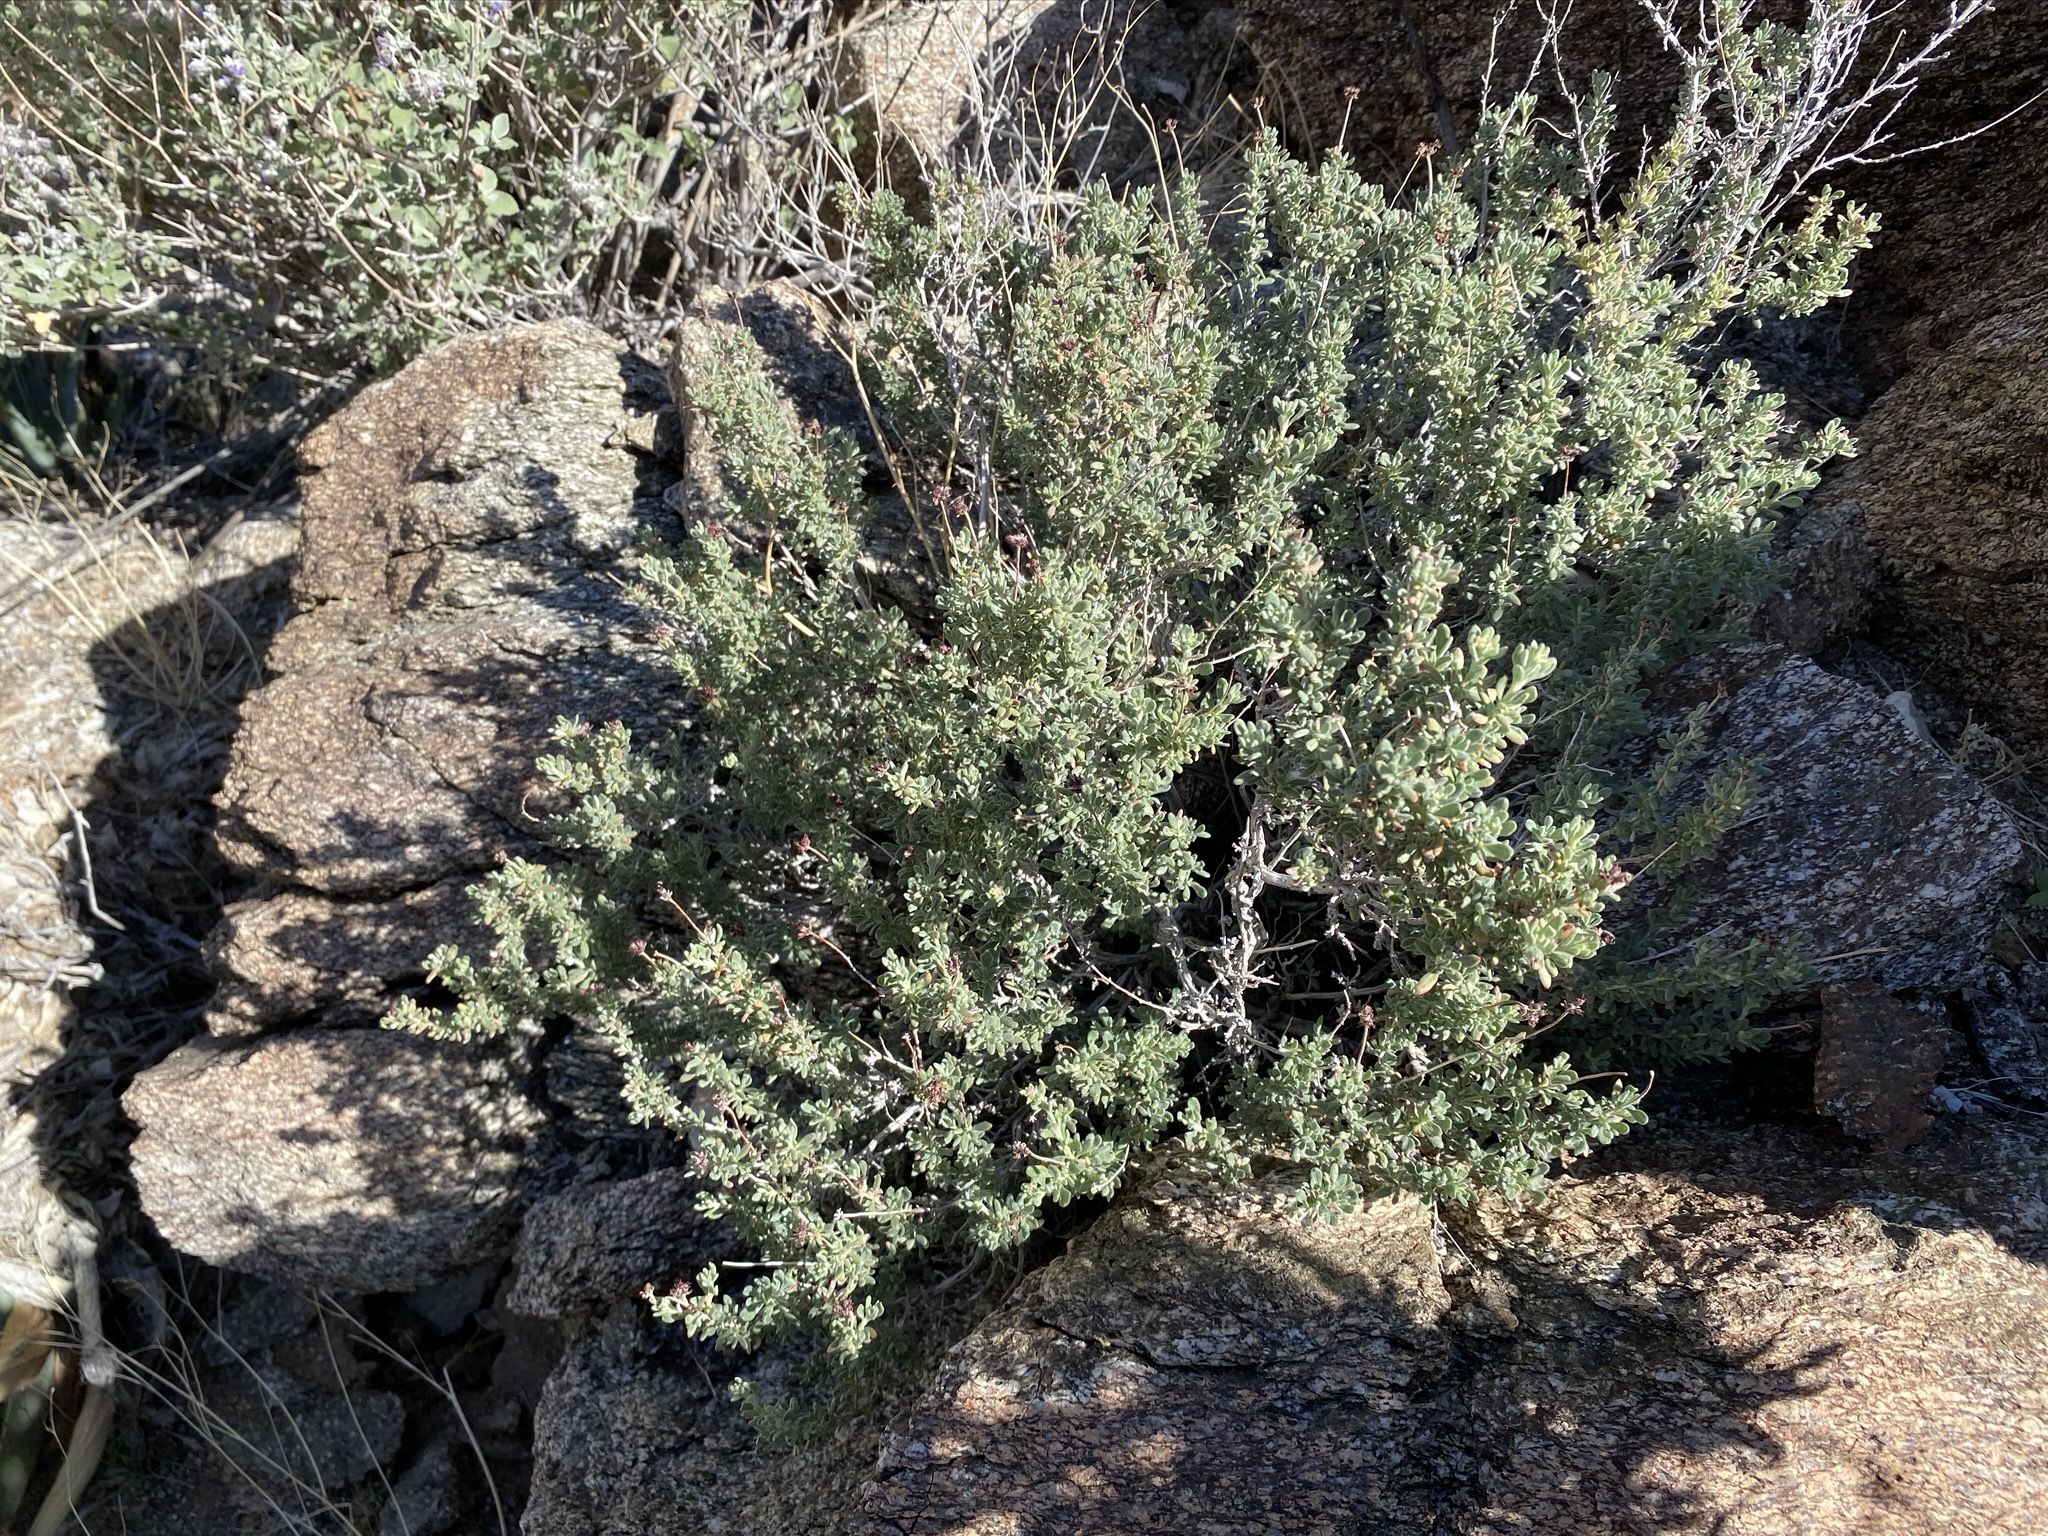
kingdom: Plantae
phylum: Tracheophyta
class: Magnoliopsida
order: Caryophyllales
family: Polygonaceae
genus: Eriogonum
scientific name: Eriogonum fasciculatum
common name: California wild buckwheat
